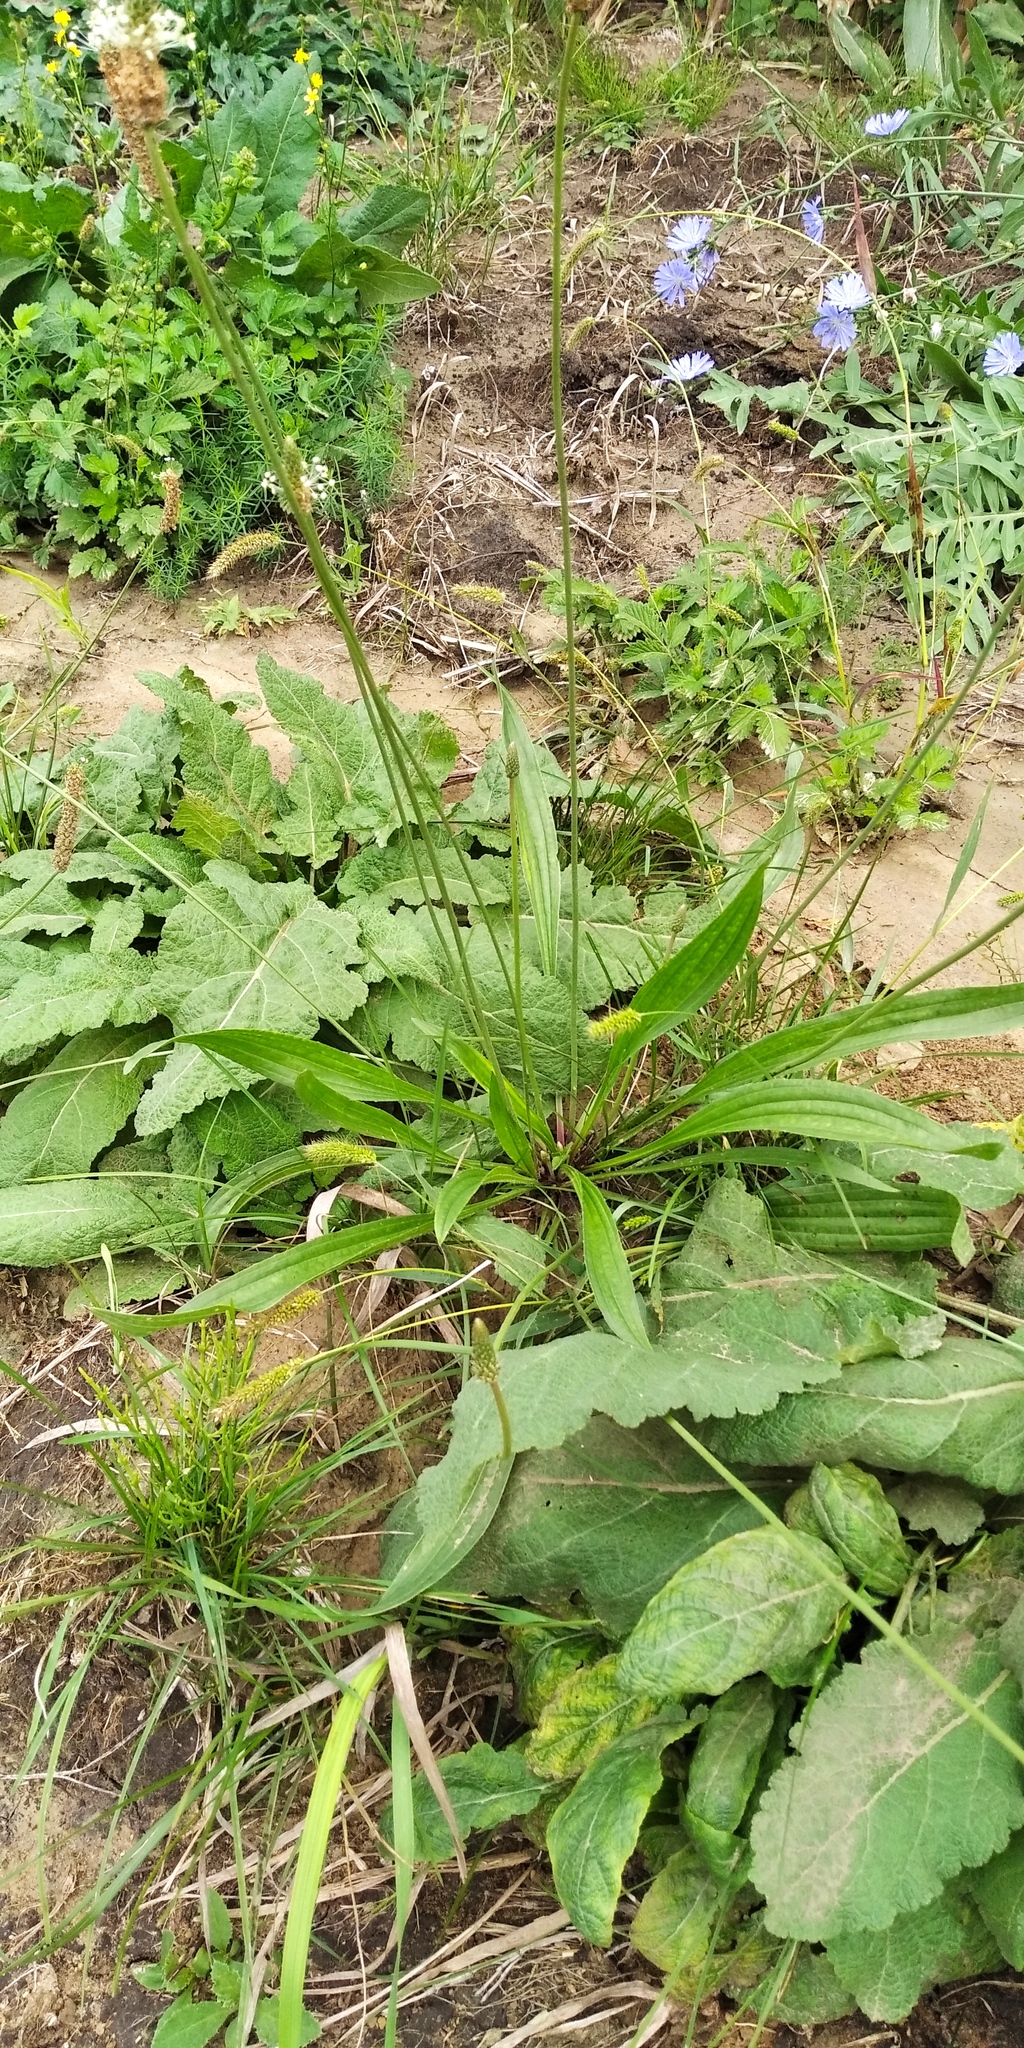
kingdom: Plantae
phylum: Tracheophyta
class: Magnoliopsida
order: Lamiales
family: Plantaginaceae
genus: Plantago
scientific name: Plantago lanceolata
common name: Ribwort plantain
